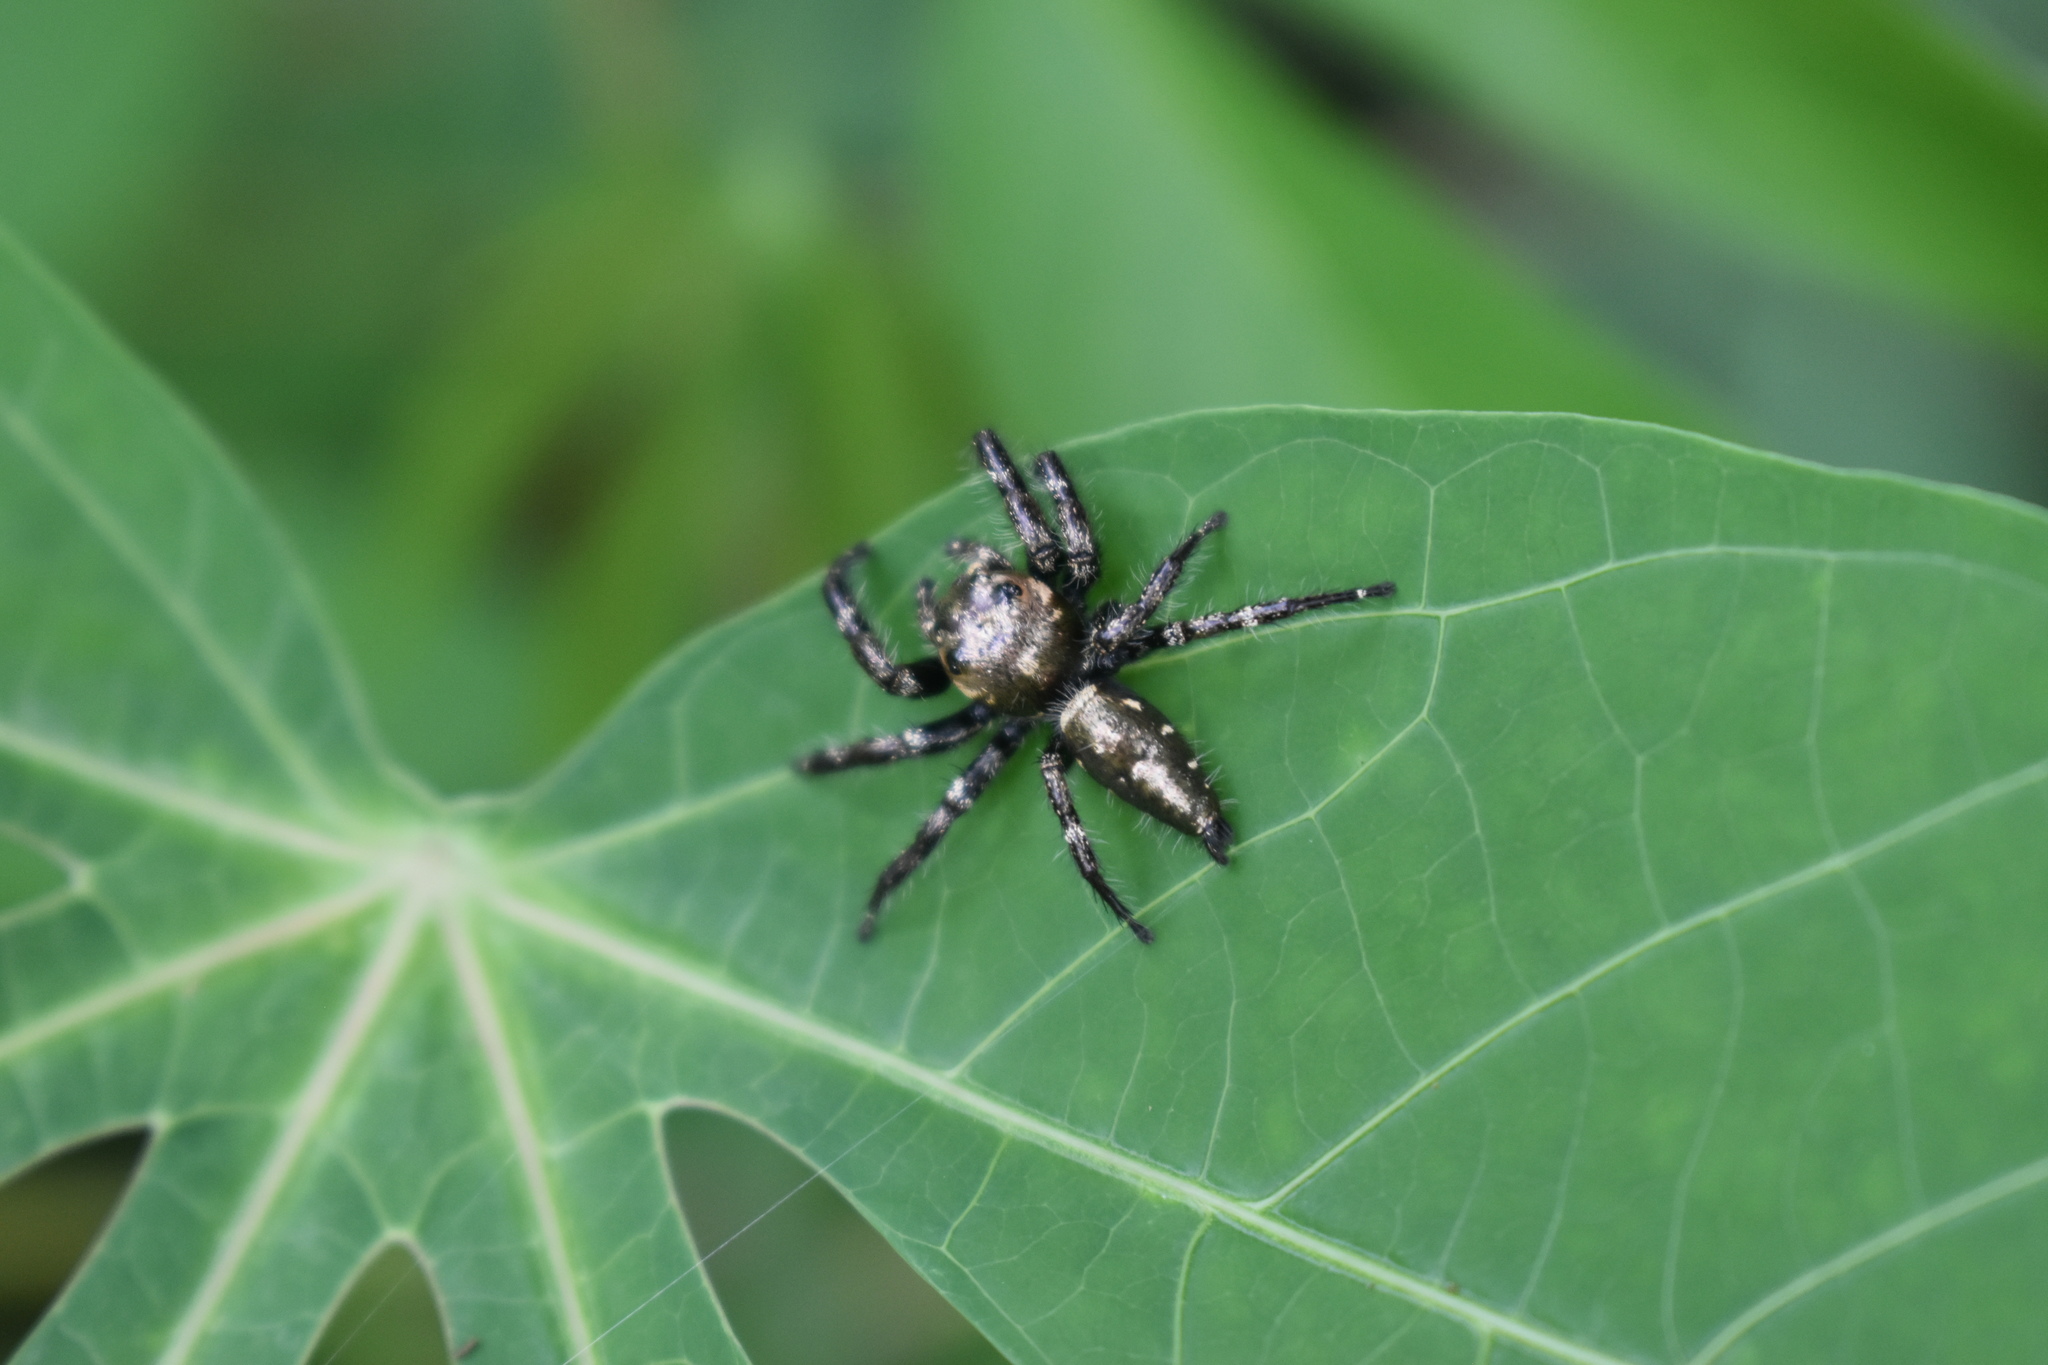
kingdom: Animalia
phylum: Arthropoda
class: Arachnida
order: Araneae
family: Salticidae
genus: Hyllus
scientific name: Hyllus semicupreus
